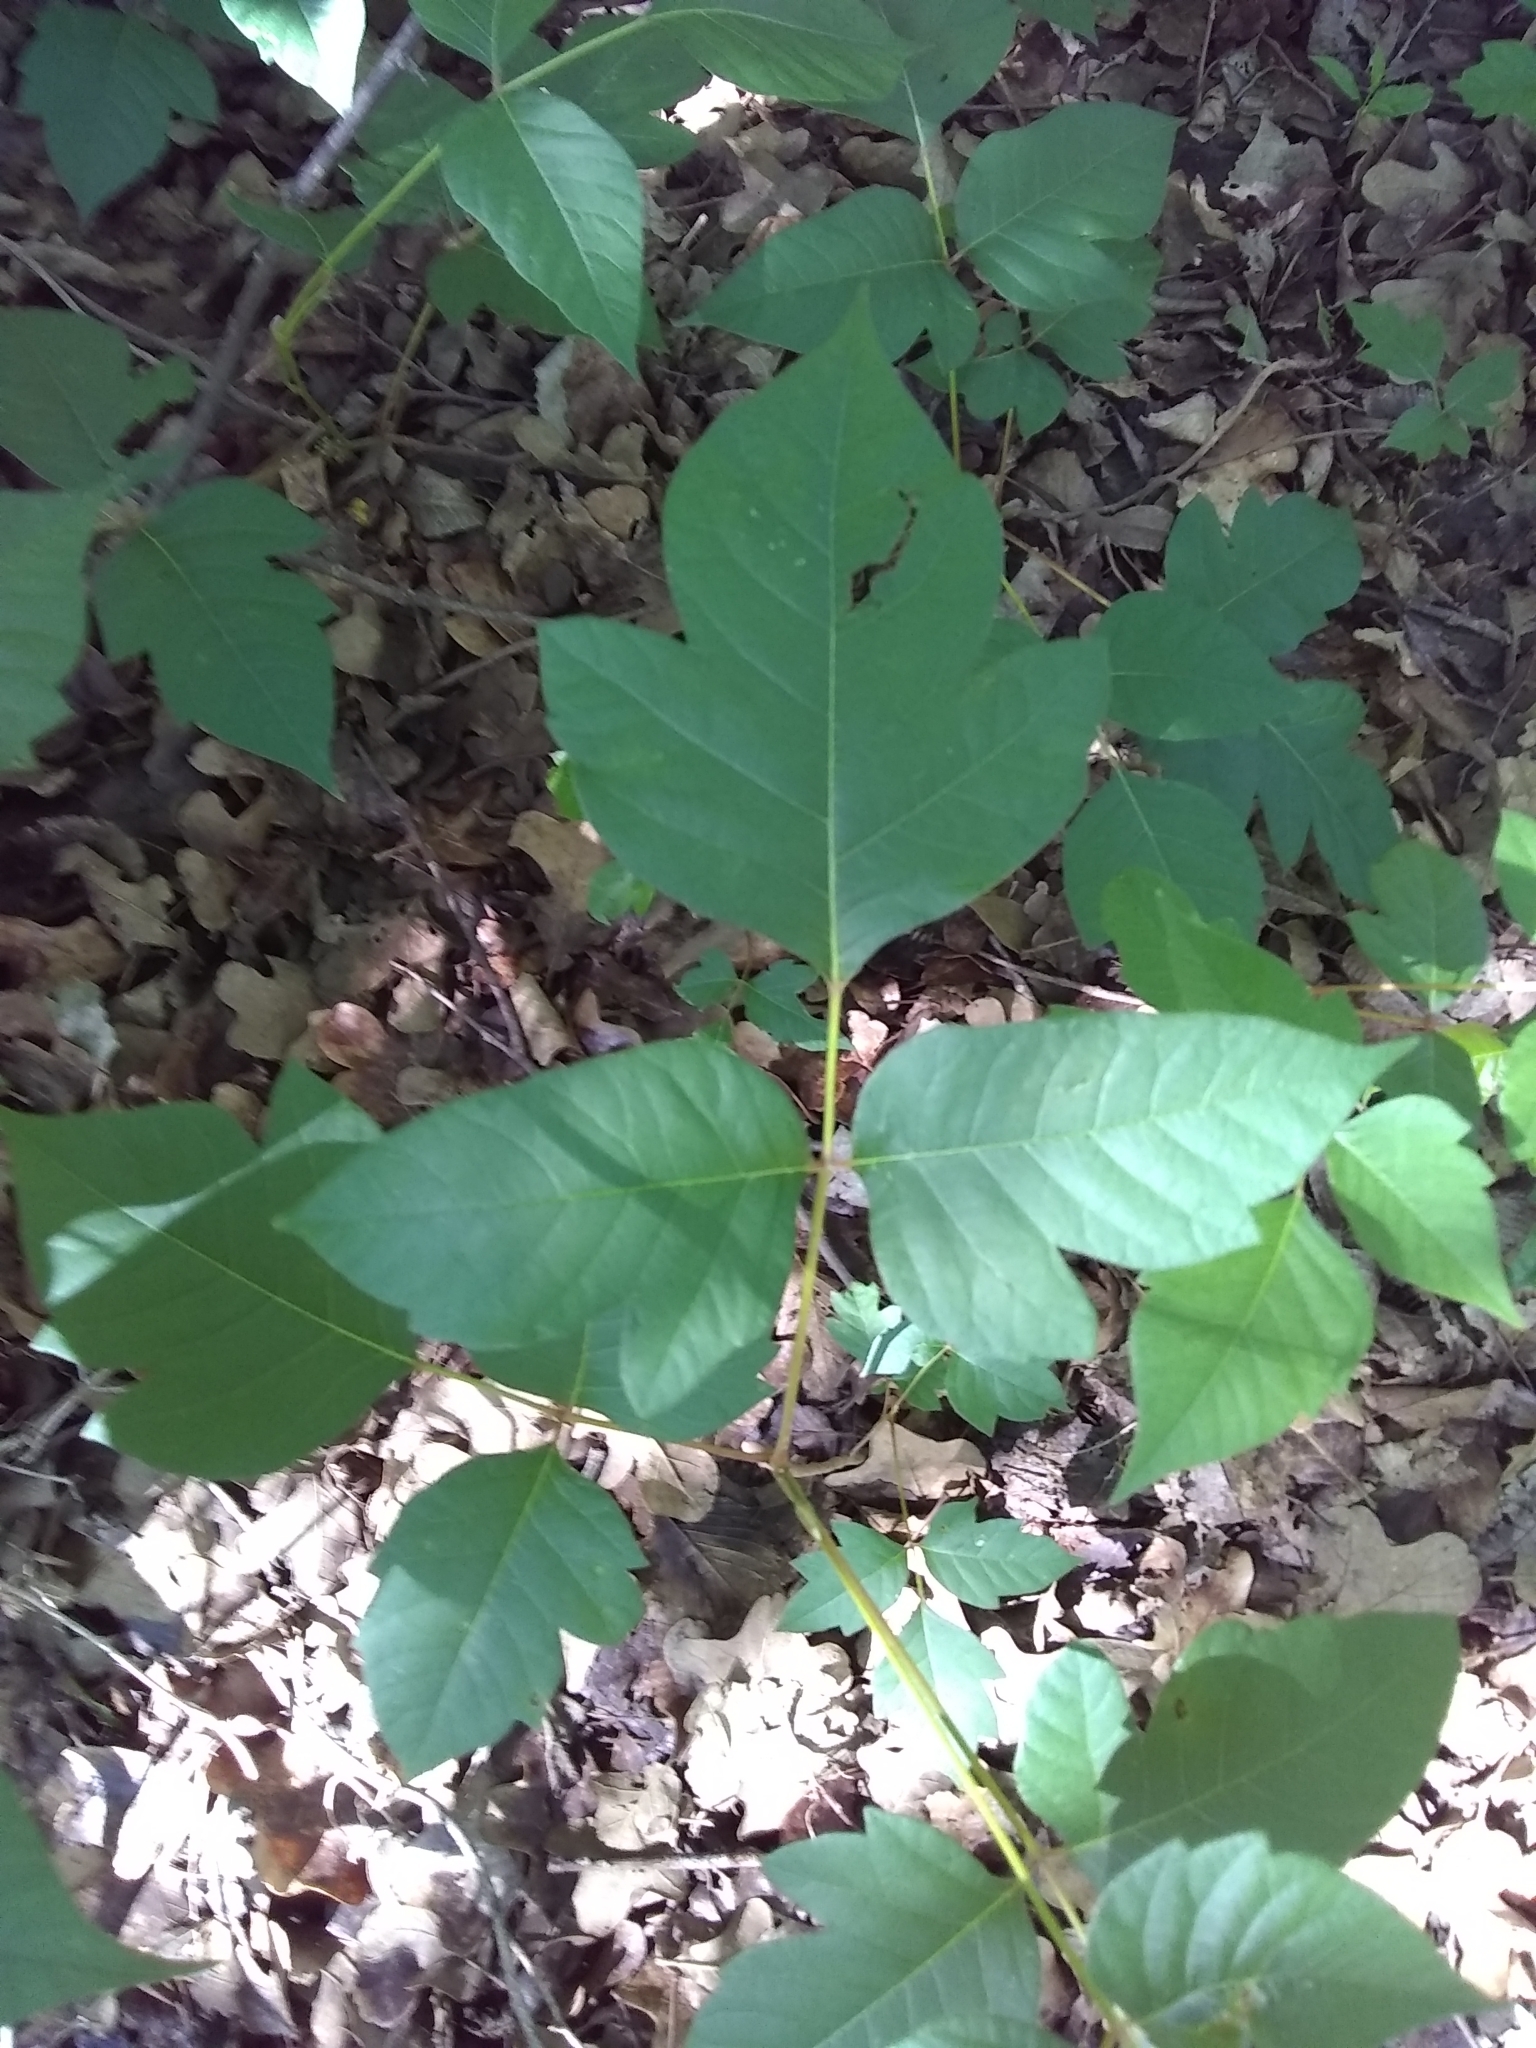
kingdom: Plantae
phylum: Tracheophyta
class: Magnoliopsida
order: Sapindales
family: Anacardiaceae
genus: Toxicodendron
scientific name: Toxicodendron radicans
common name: Poison ivy
